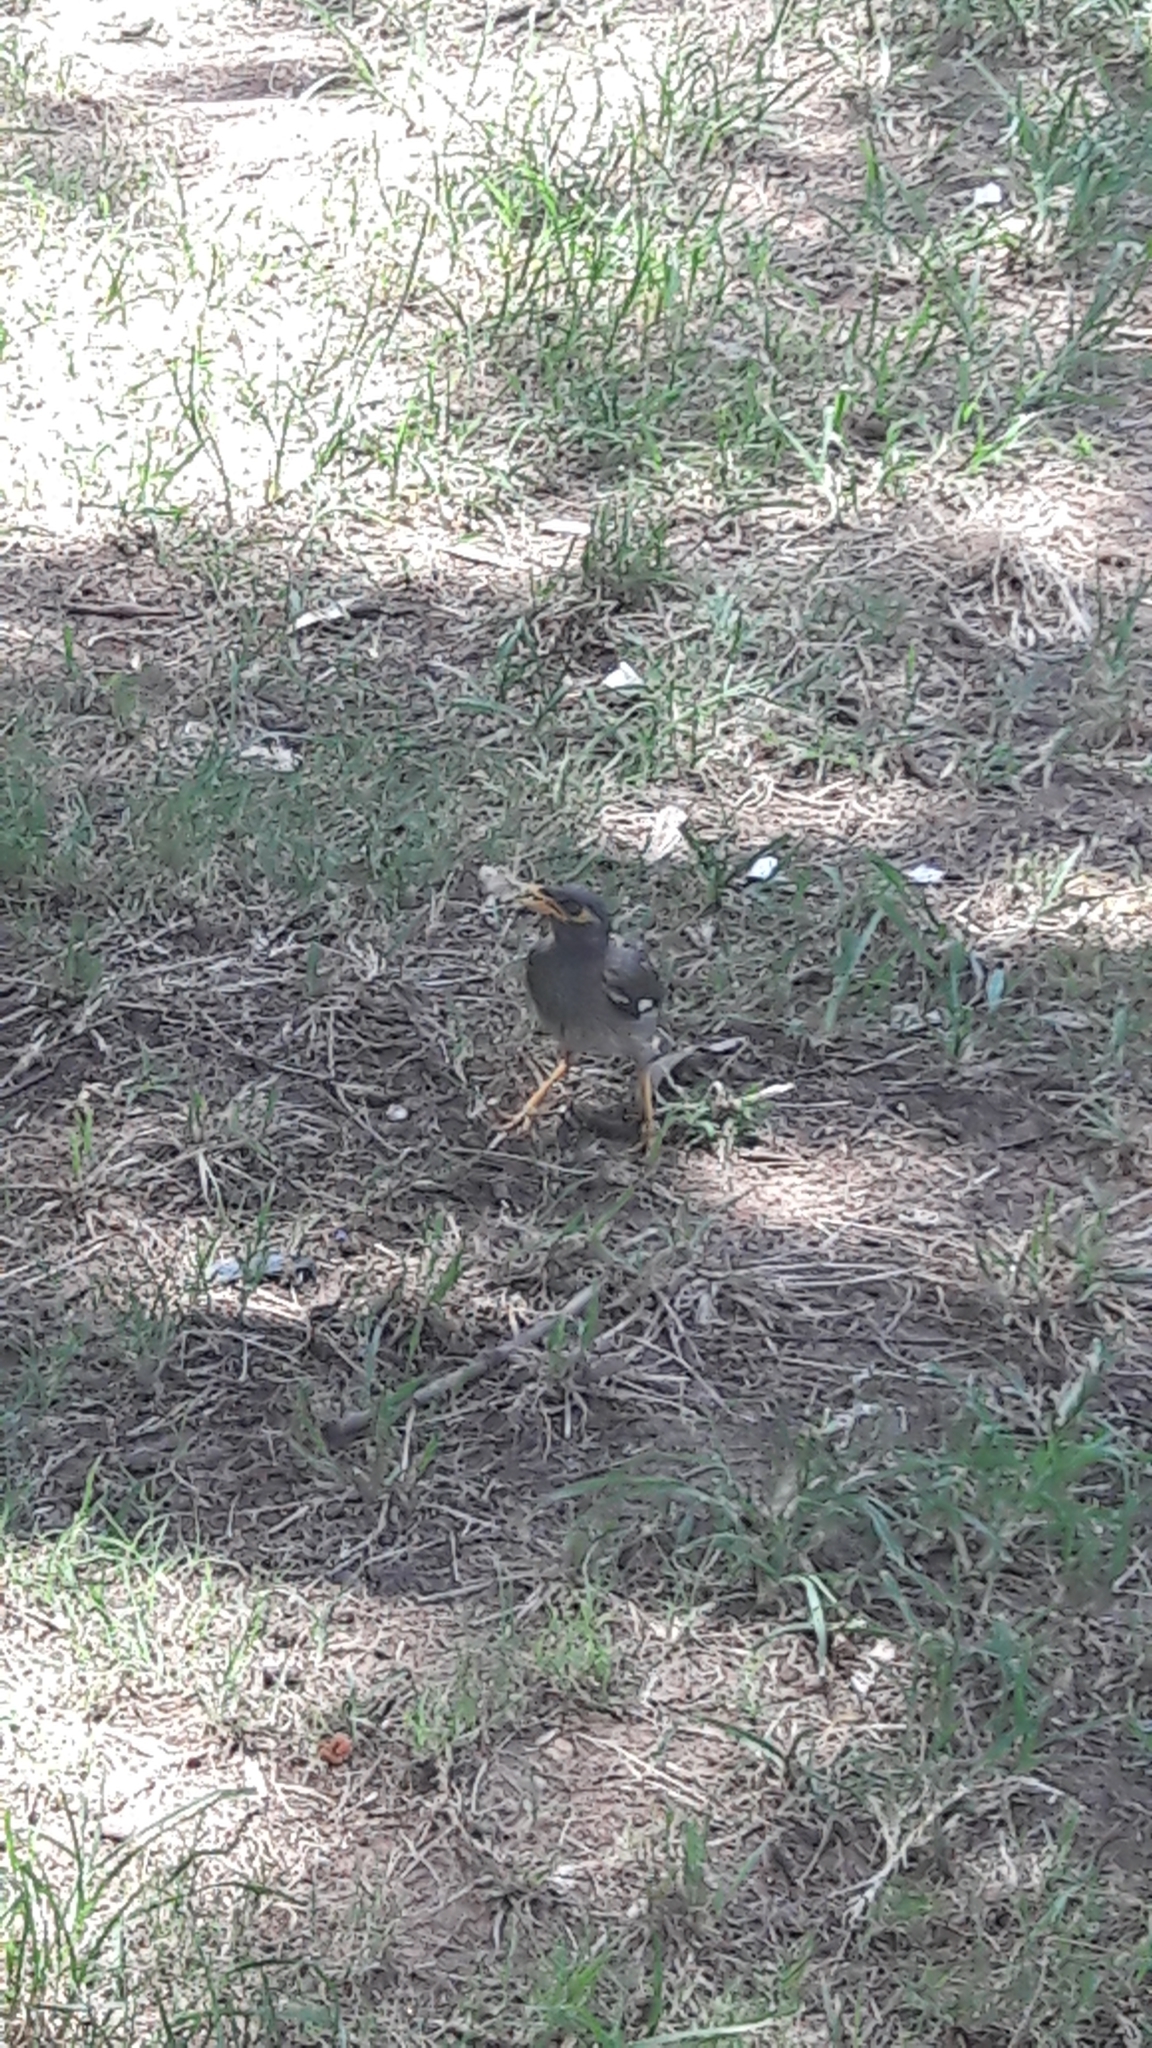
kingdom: Animalia
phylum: Chordata
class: Aves
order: Passeriformes
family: Sturnidae
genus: Acridotheres
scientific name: Acridotheres tristis
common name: Common myna
